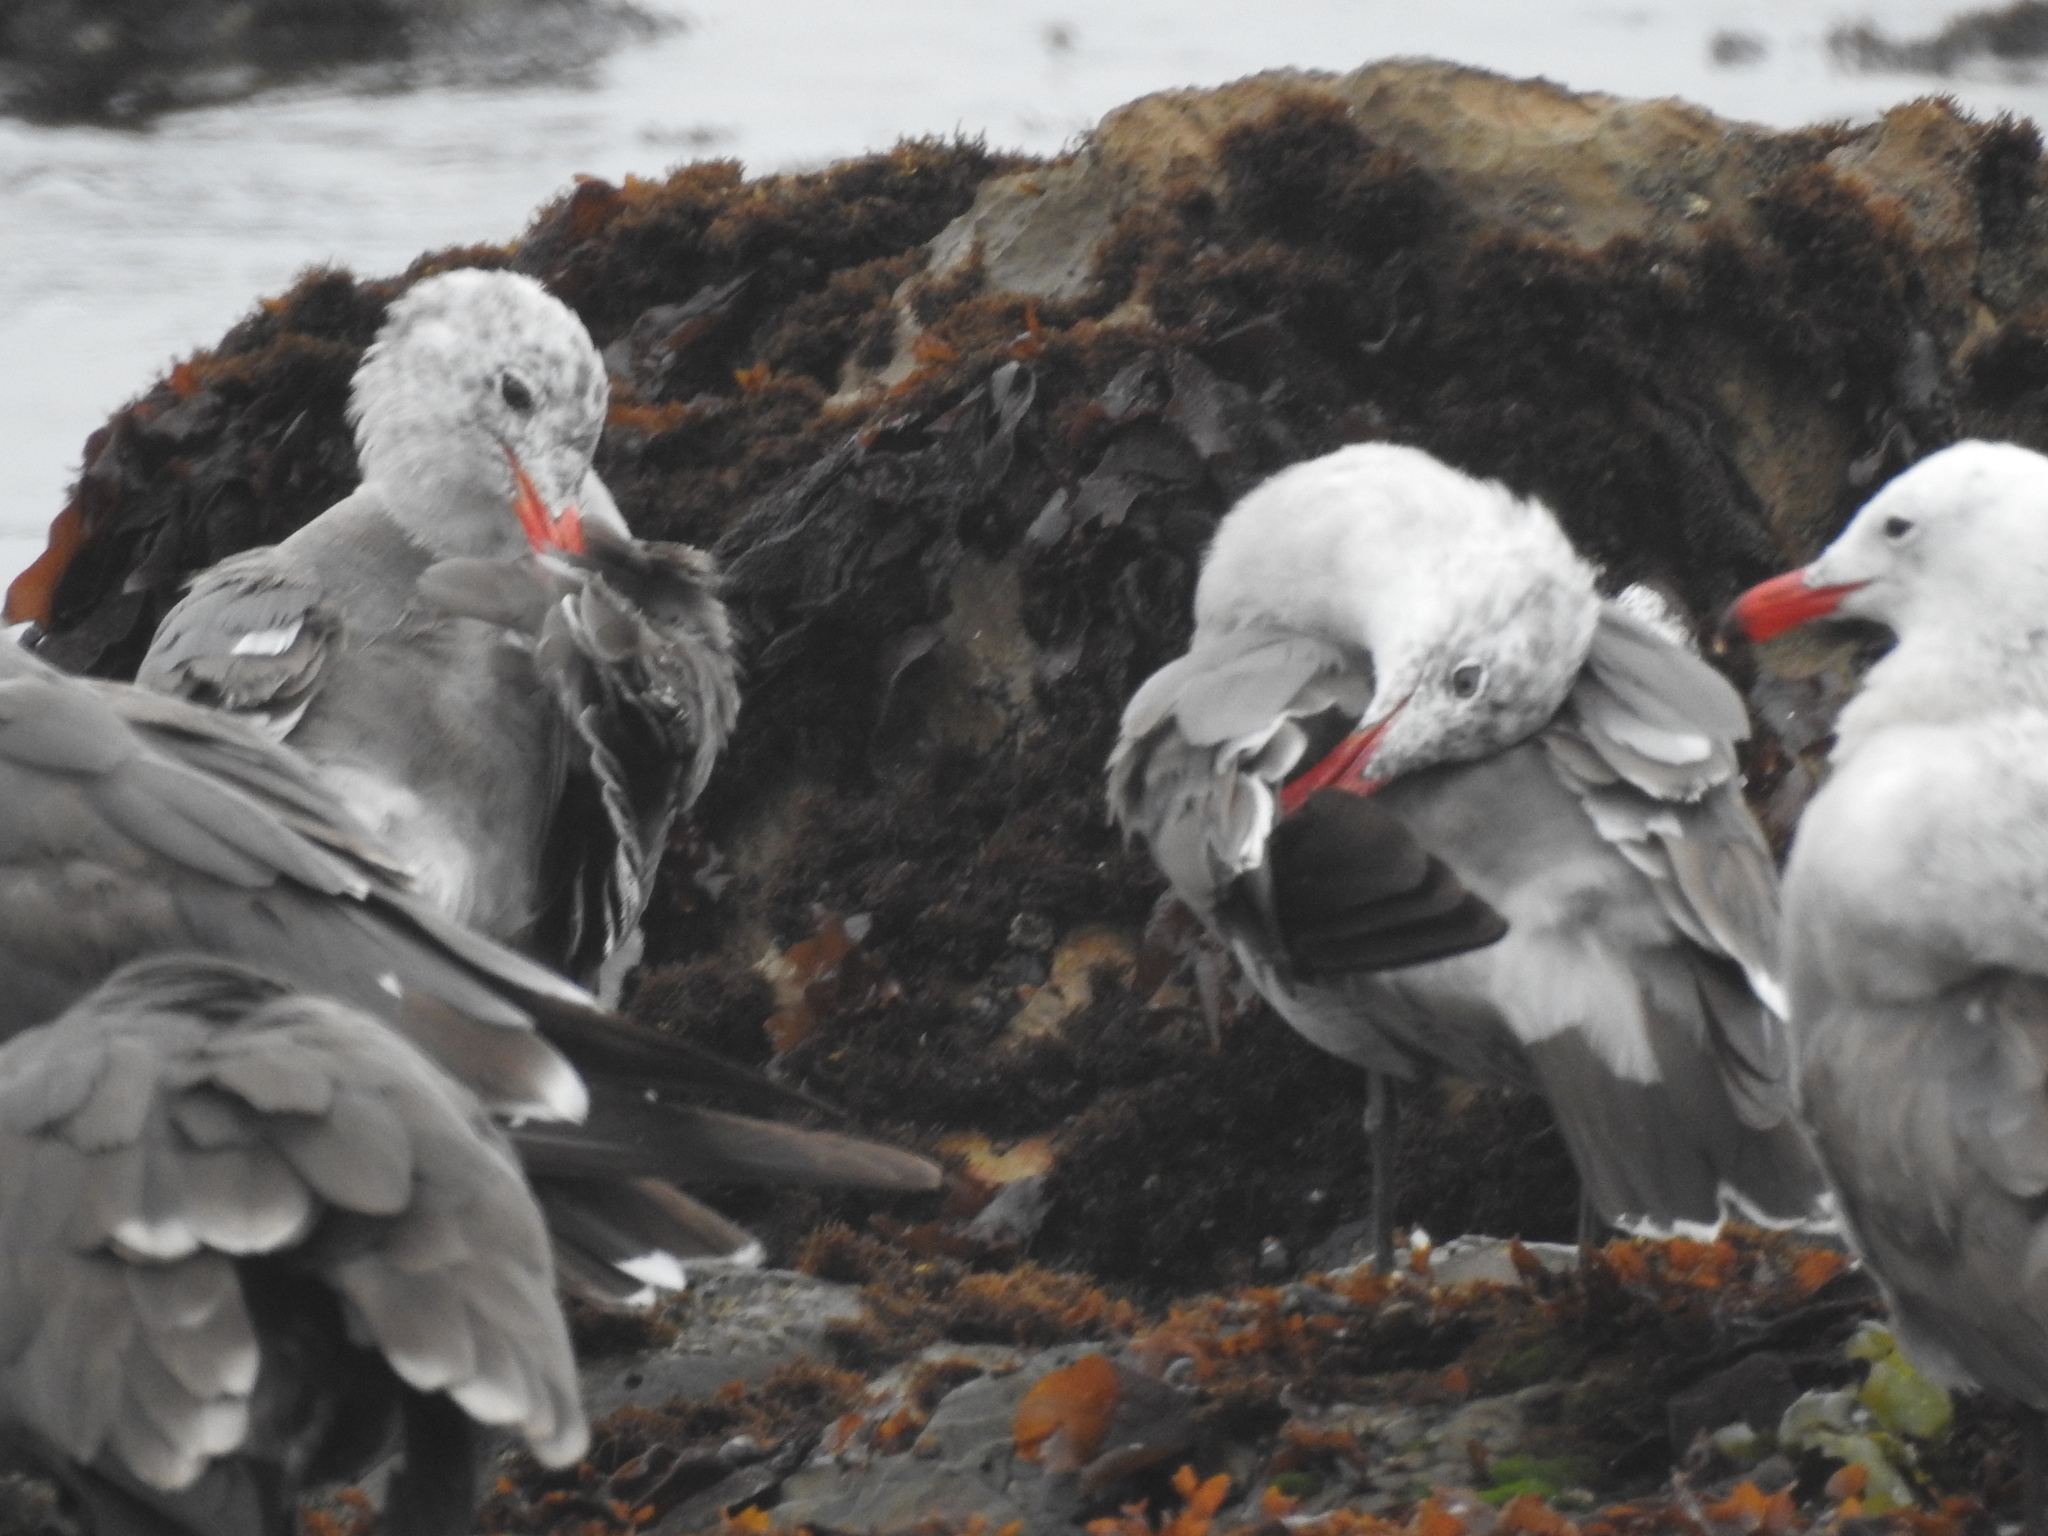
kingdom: Plantae
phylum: Rhodophyta
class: Florideophyceae
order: Gigartinales
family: Phyllophoraceae
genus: Mastocarpus
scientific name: Mastocarpus papillatus
